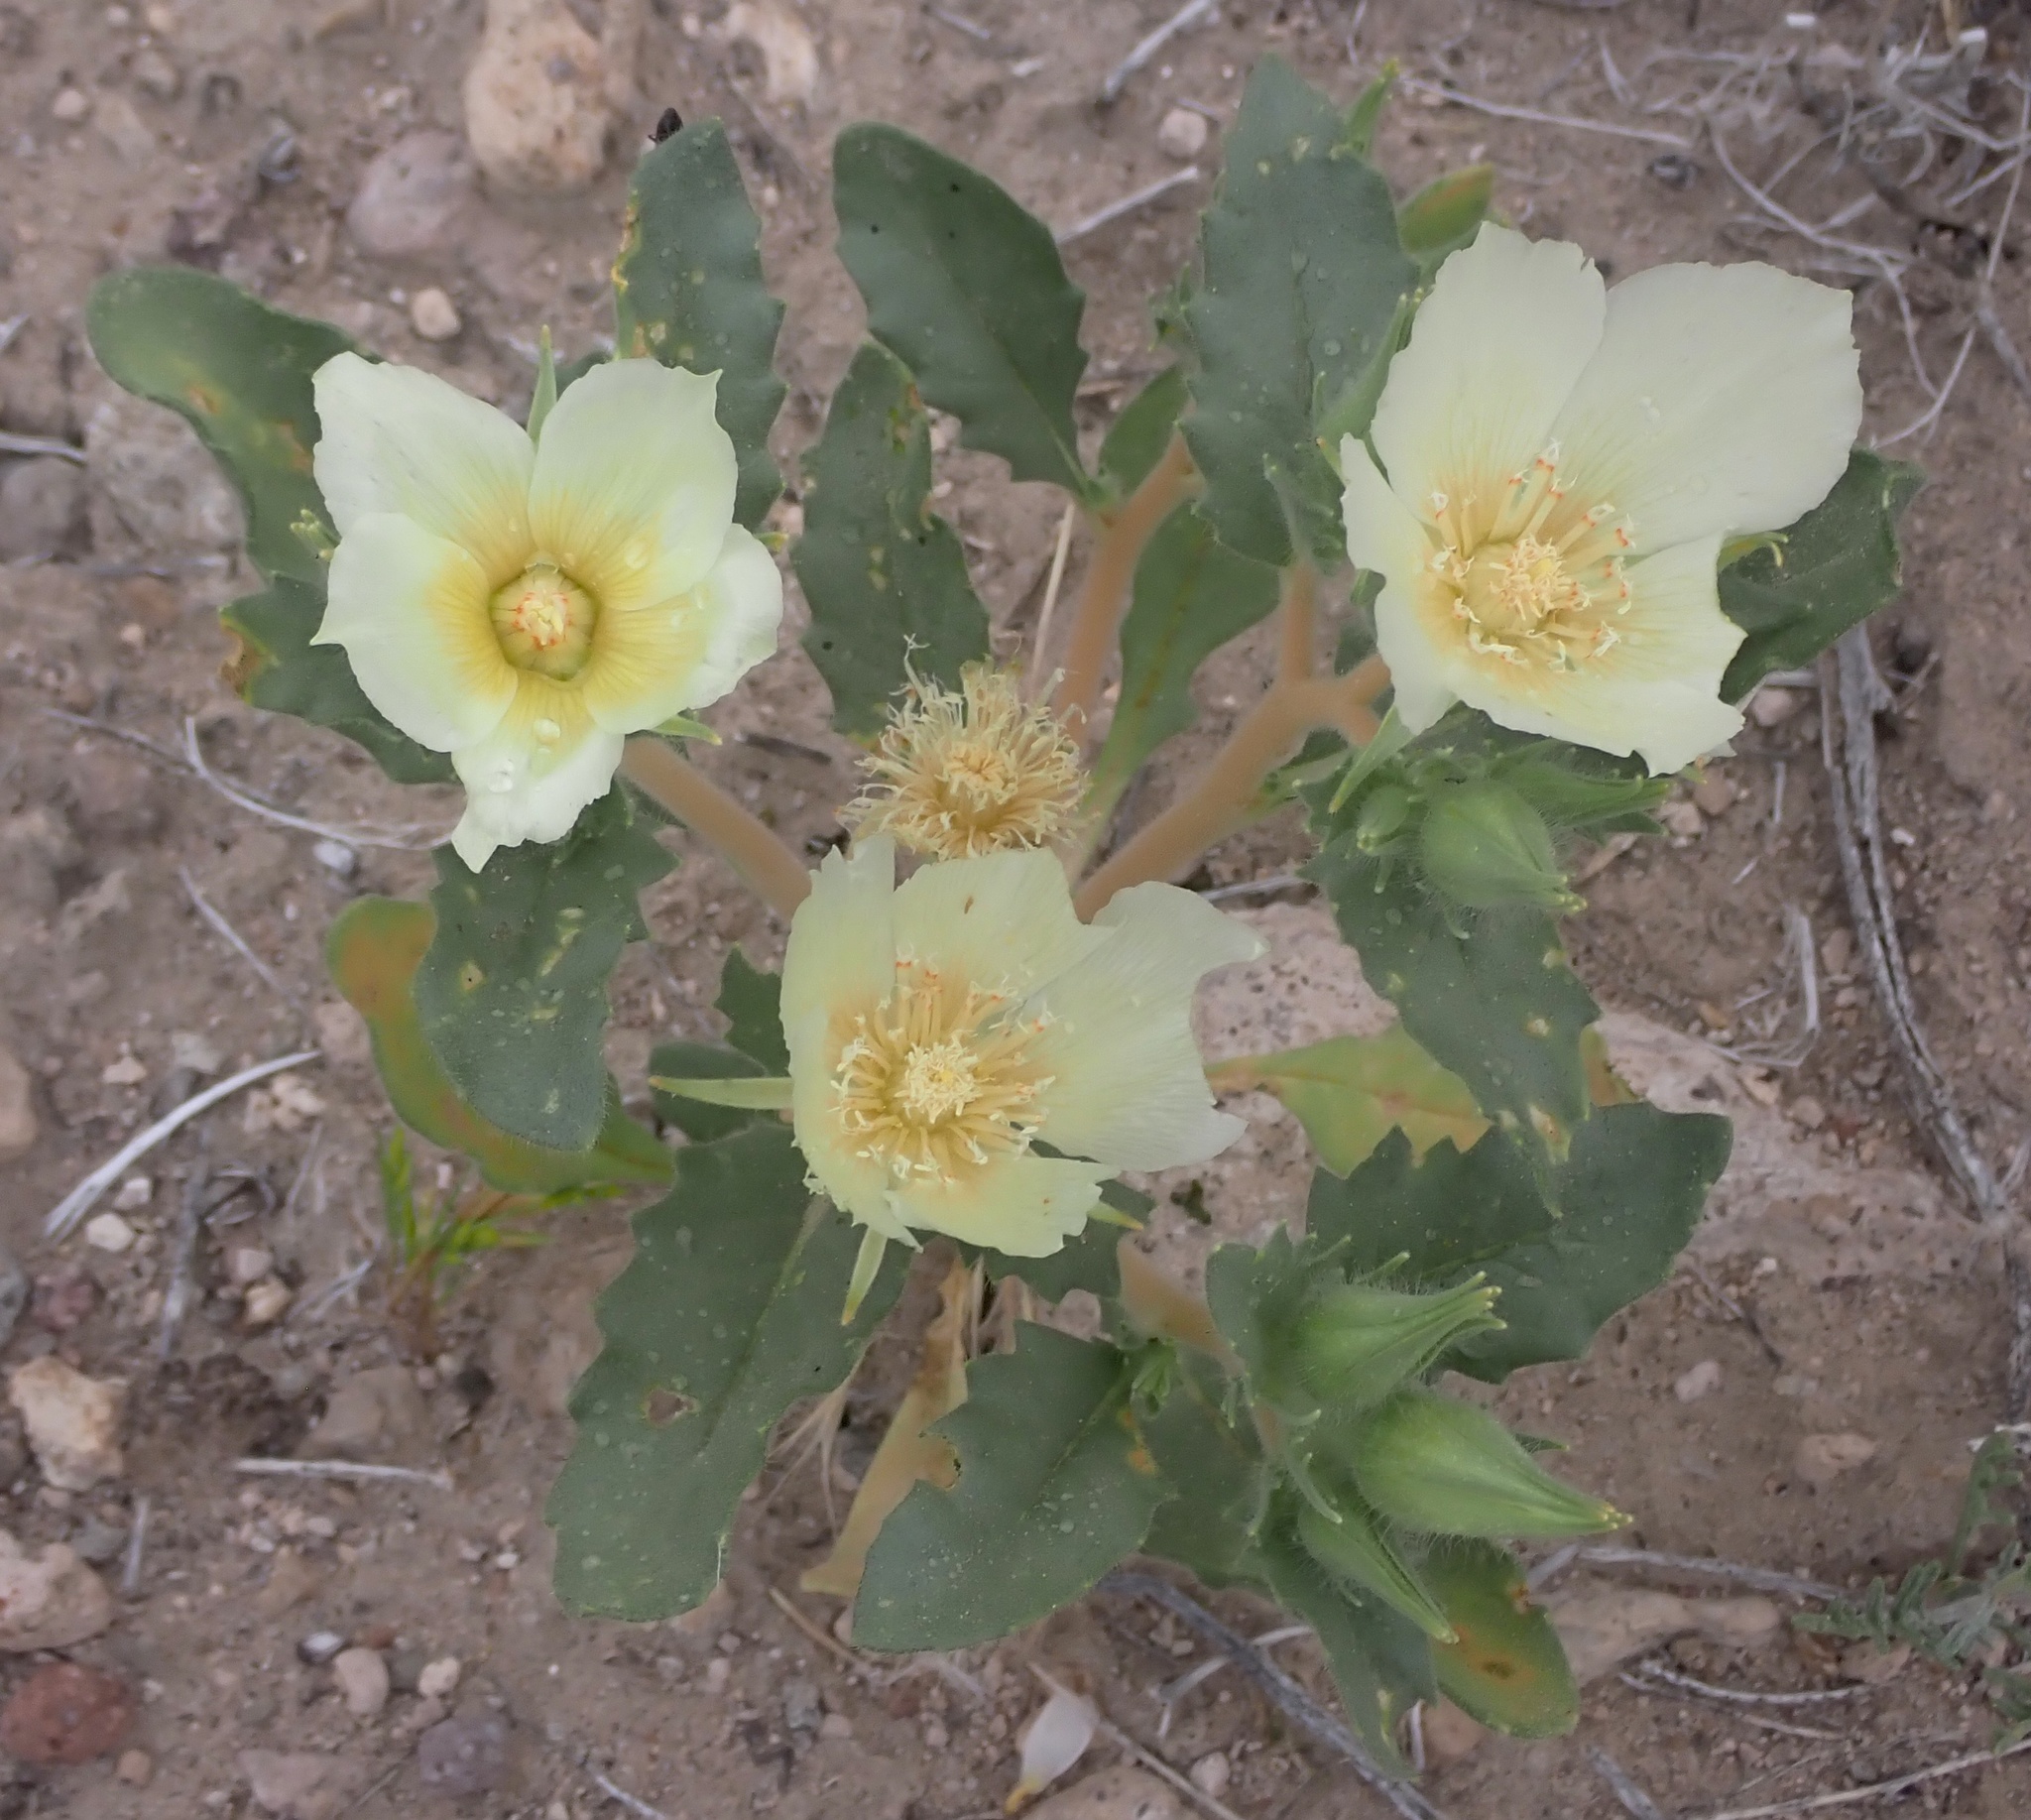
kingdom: Plantae
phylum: Tracheophyta
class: Magnoliopsida
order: Cornales
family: Loasaceae
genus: Mentzelia
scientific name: Mentzelia tricuspis
